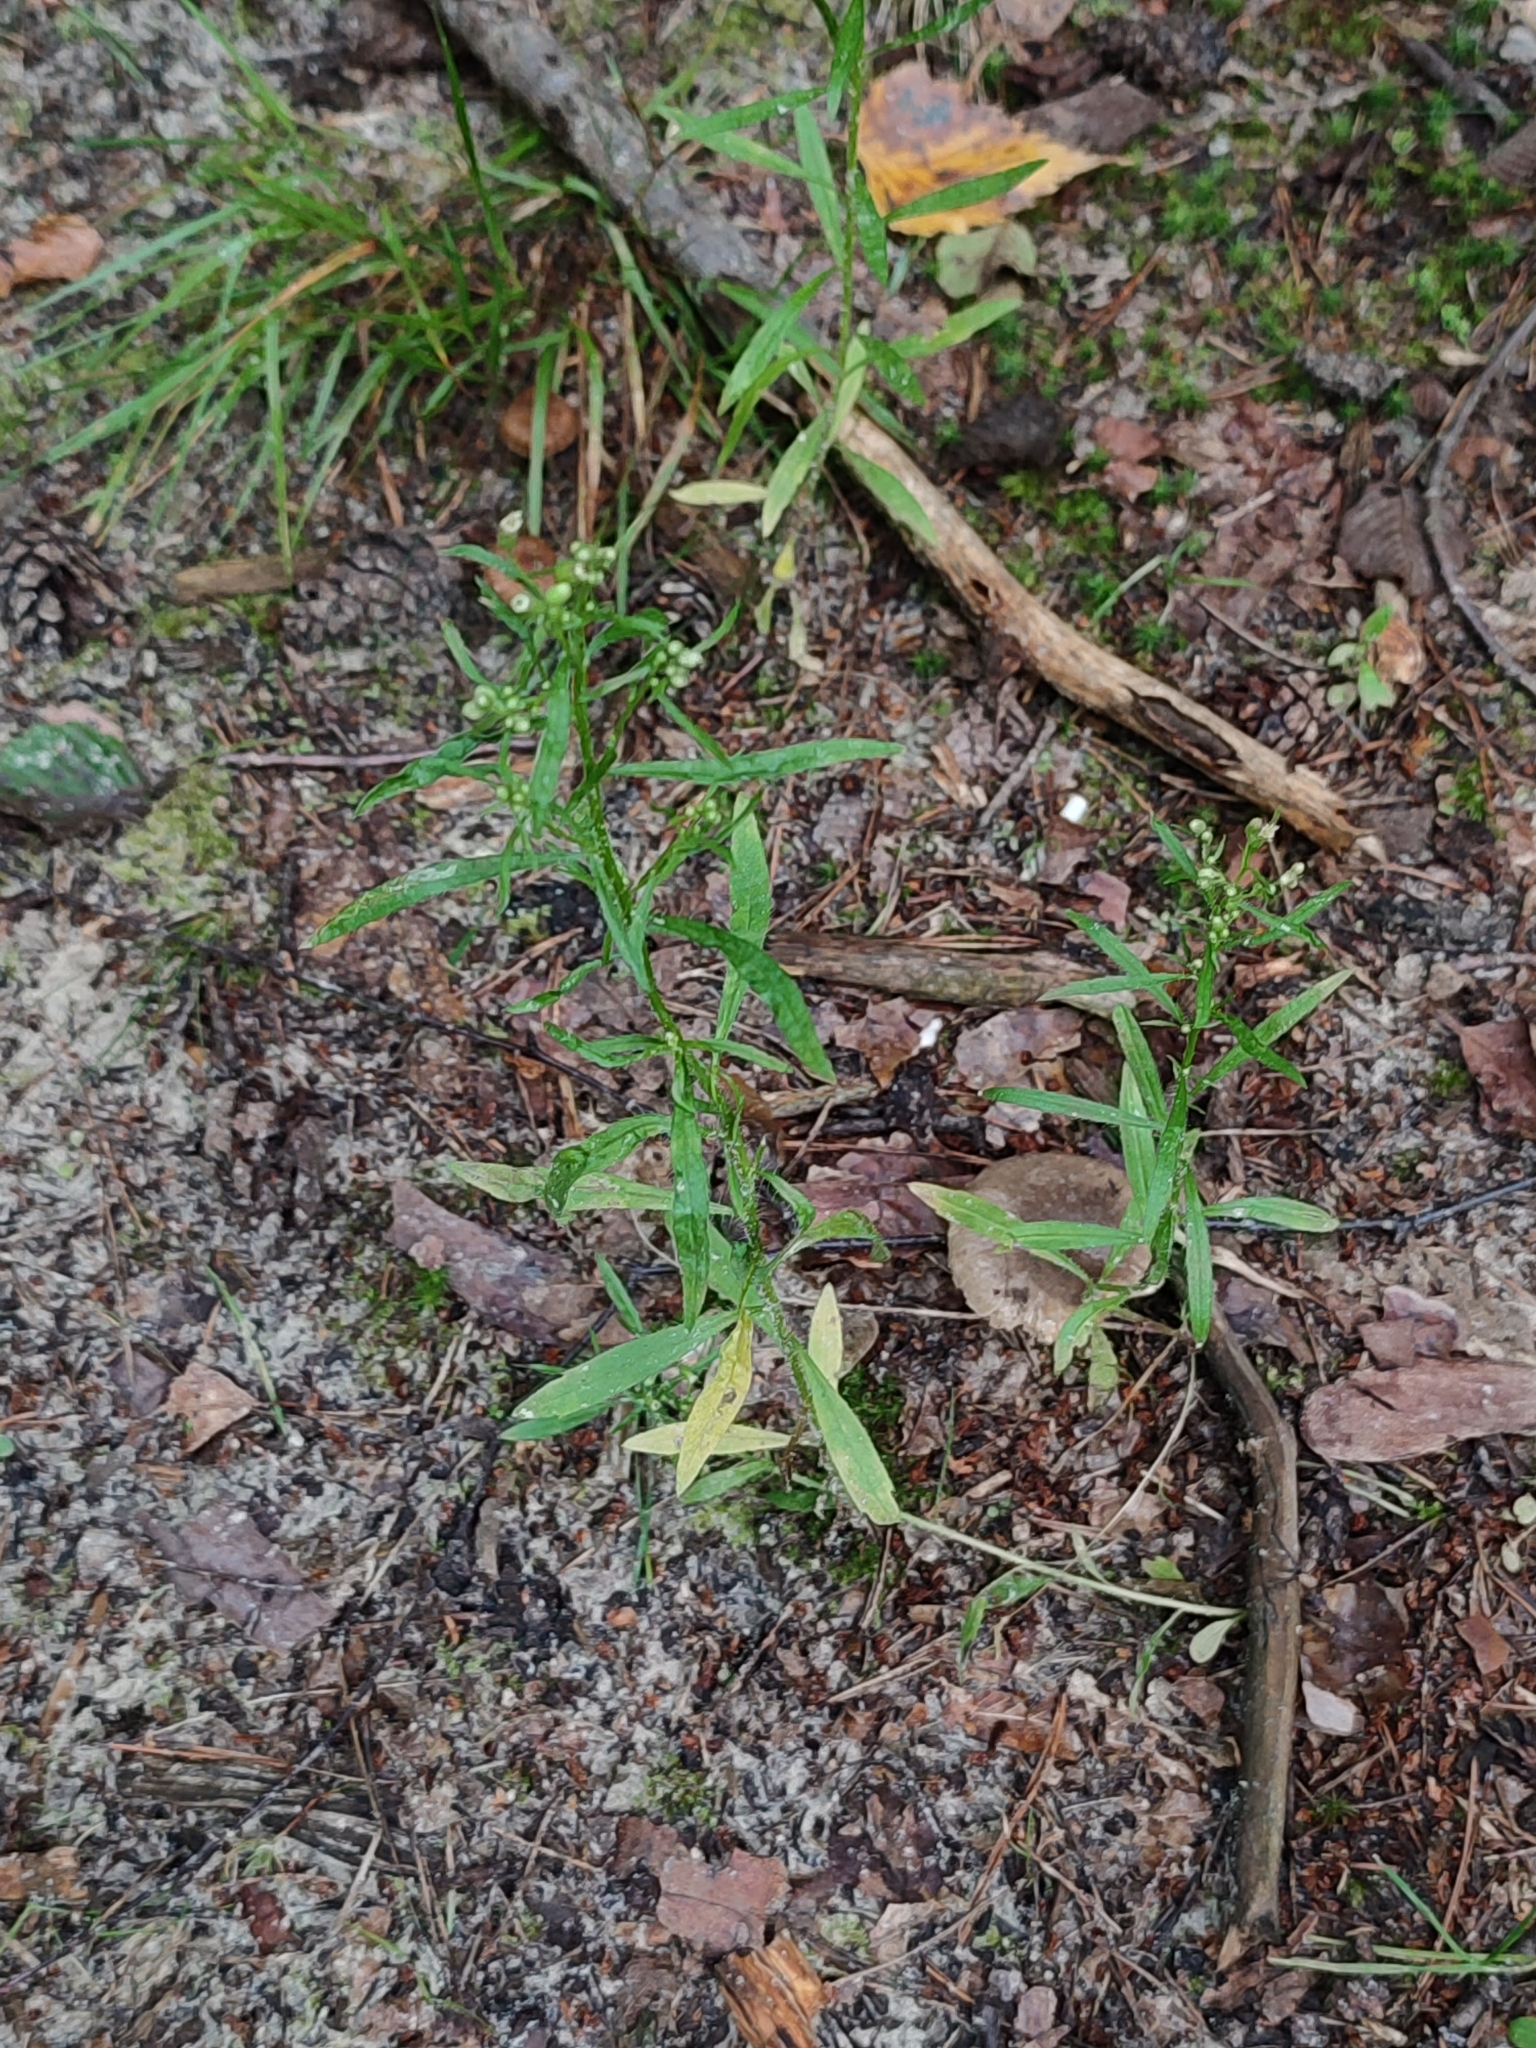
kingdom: Plantae
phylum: Tracheophyta
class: Magnoliopsida
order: Asterales
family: Asteraceae
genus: Erigeron
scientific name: Erigeron canadensis
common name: Canadian fleabane
